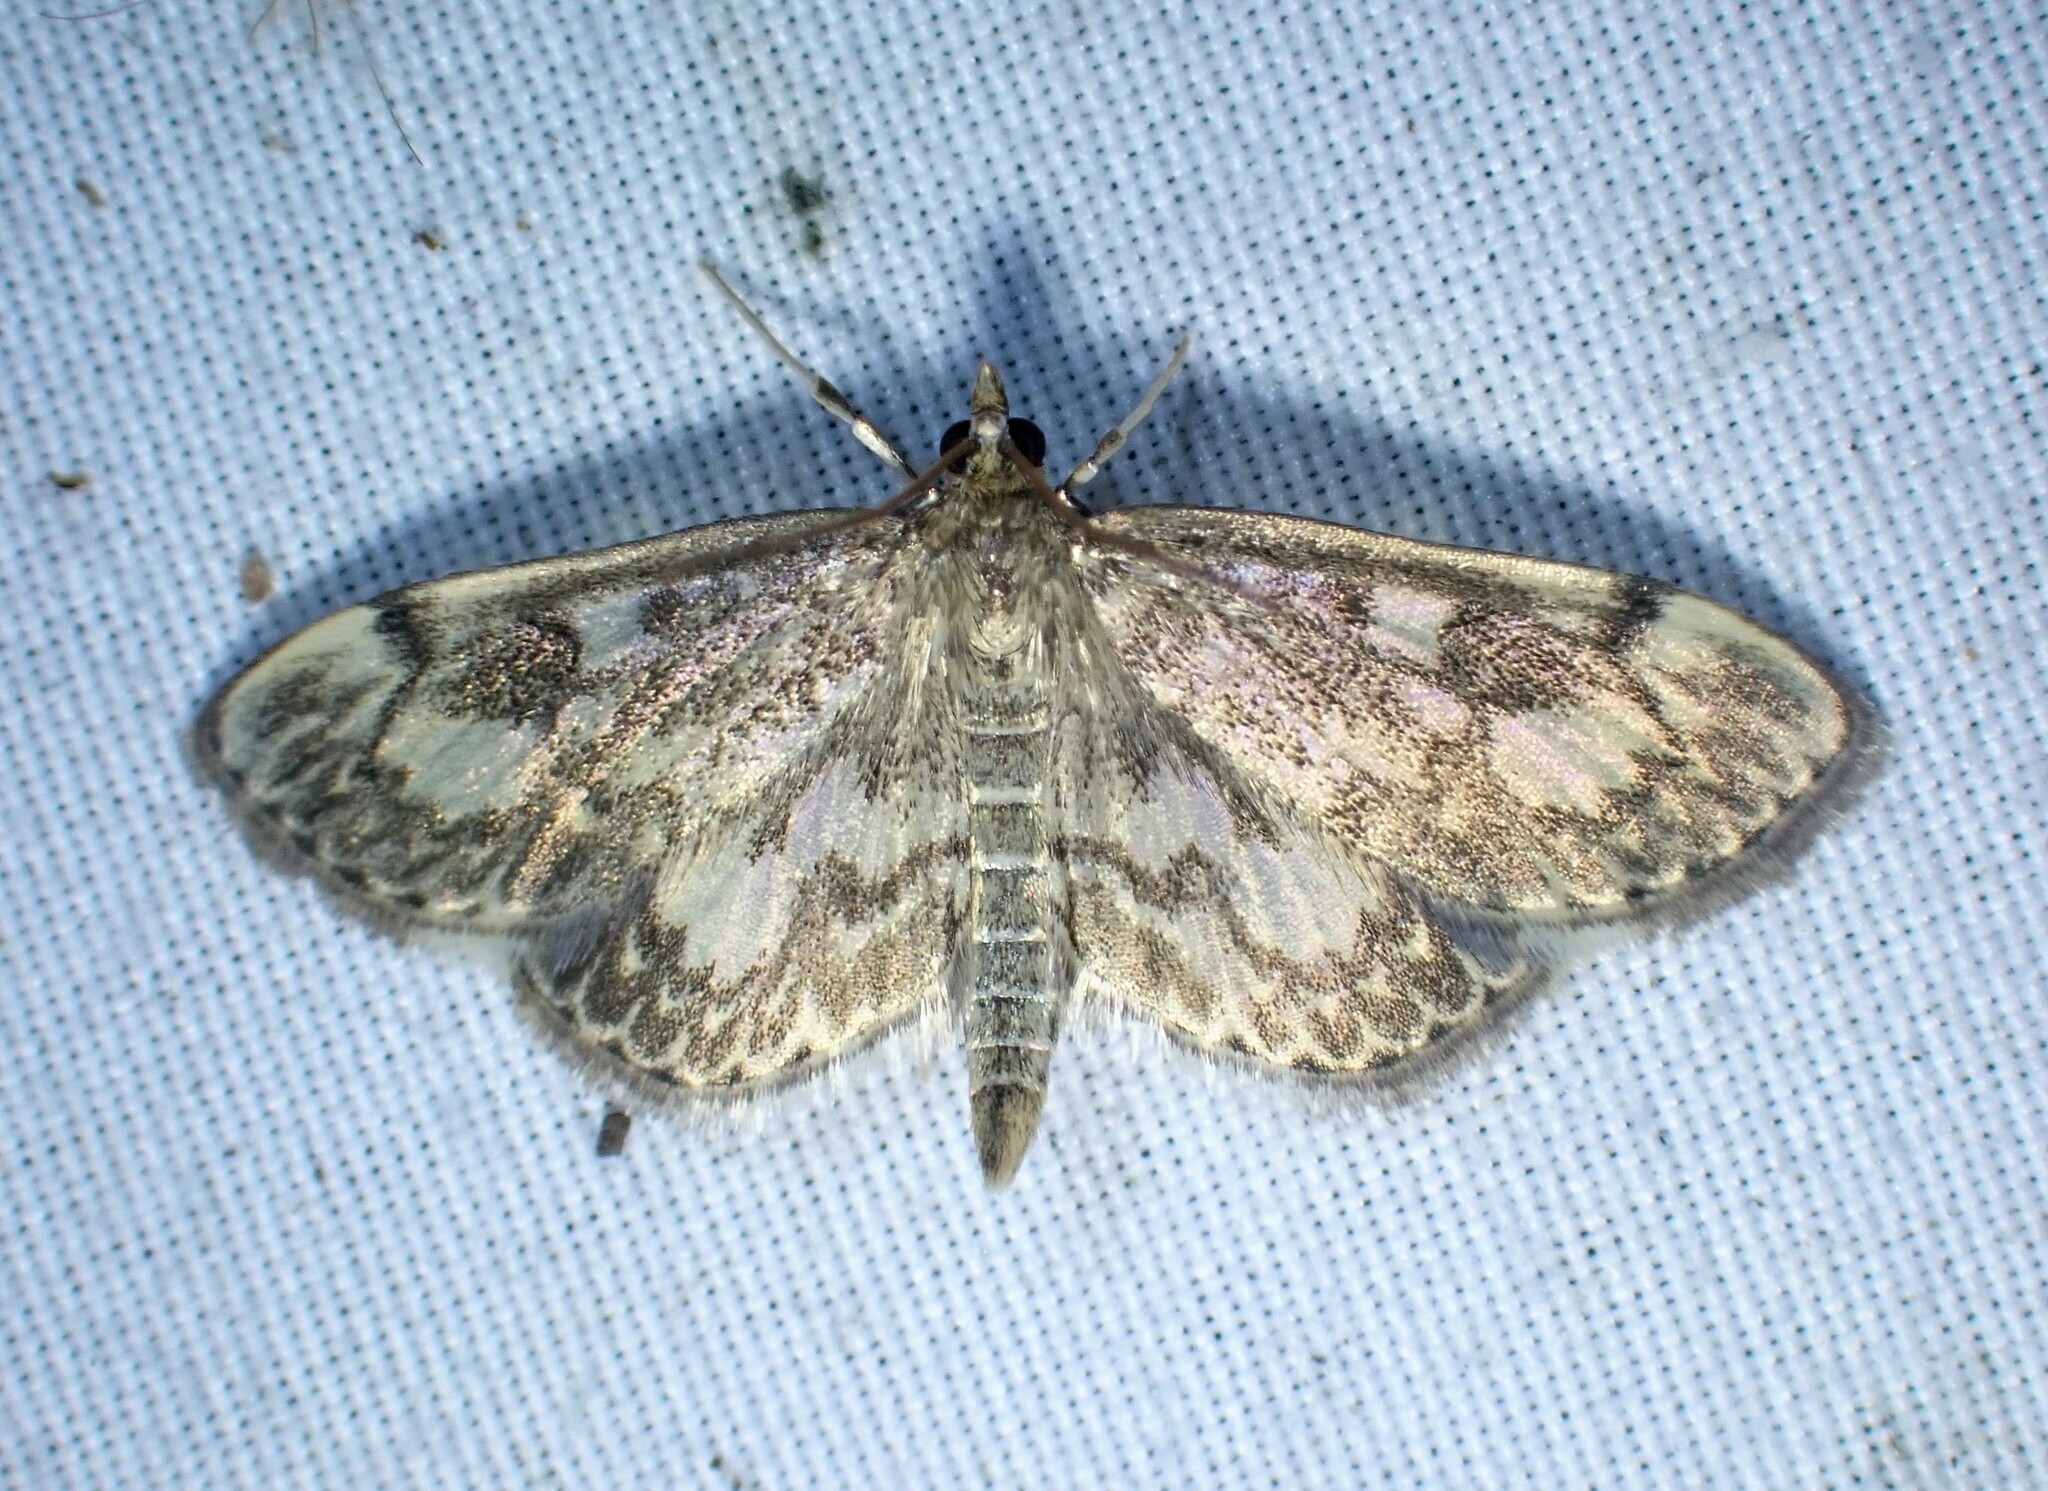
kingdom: Animalia
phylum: Arthropoda
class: Insecta
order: Lepidoptera
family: Crambidae
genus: Anania
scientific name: Anania
